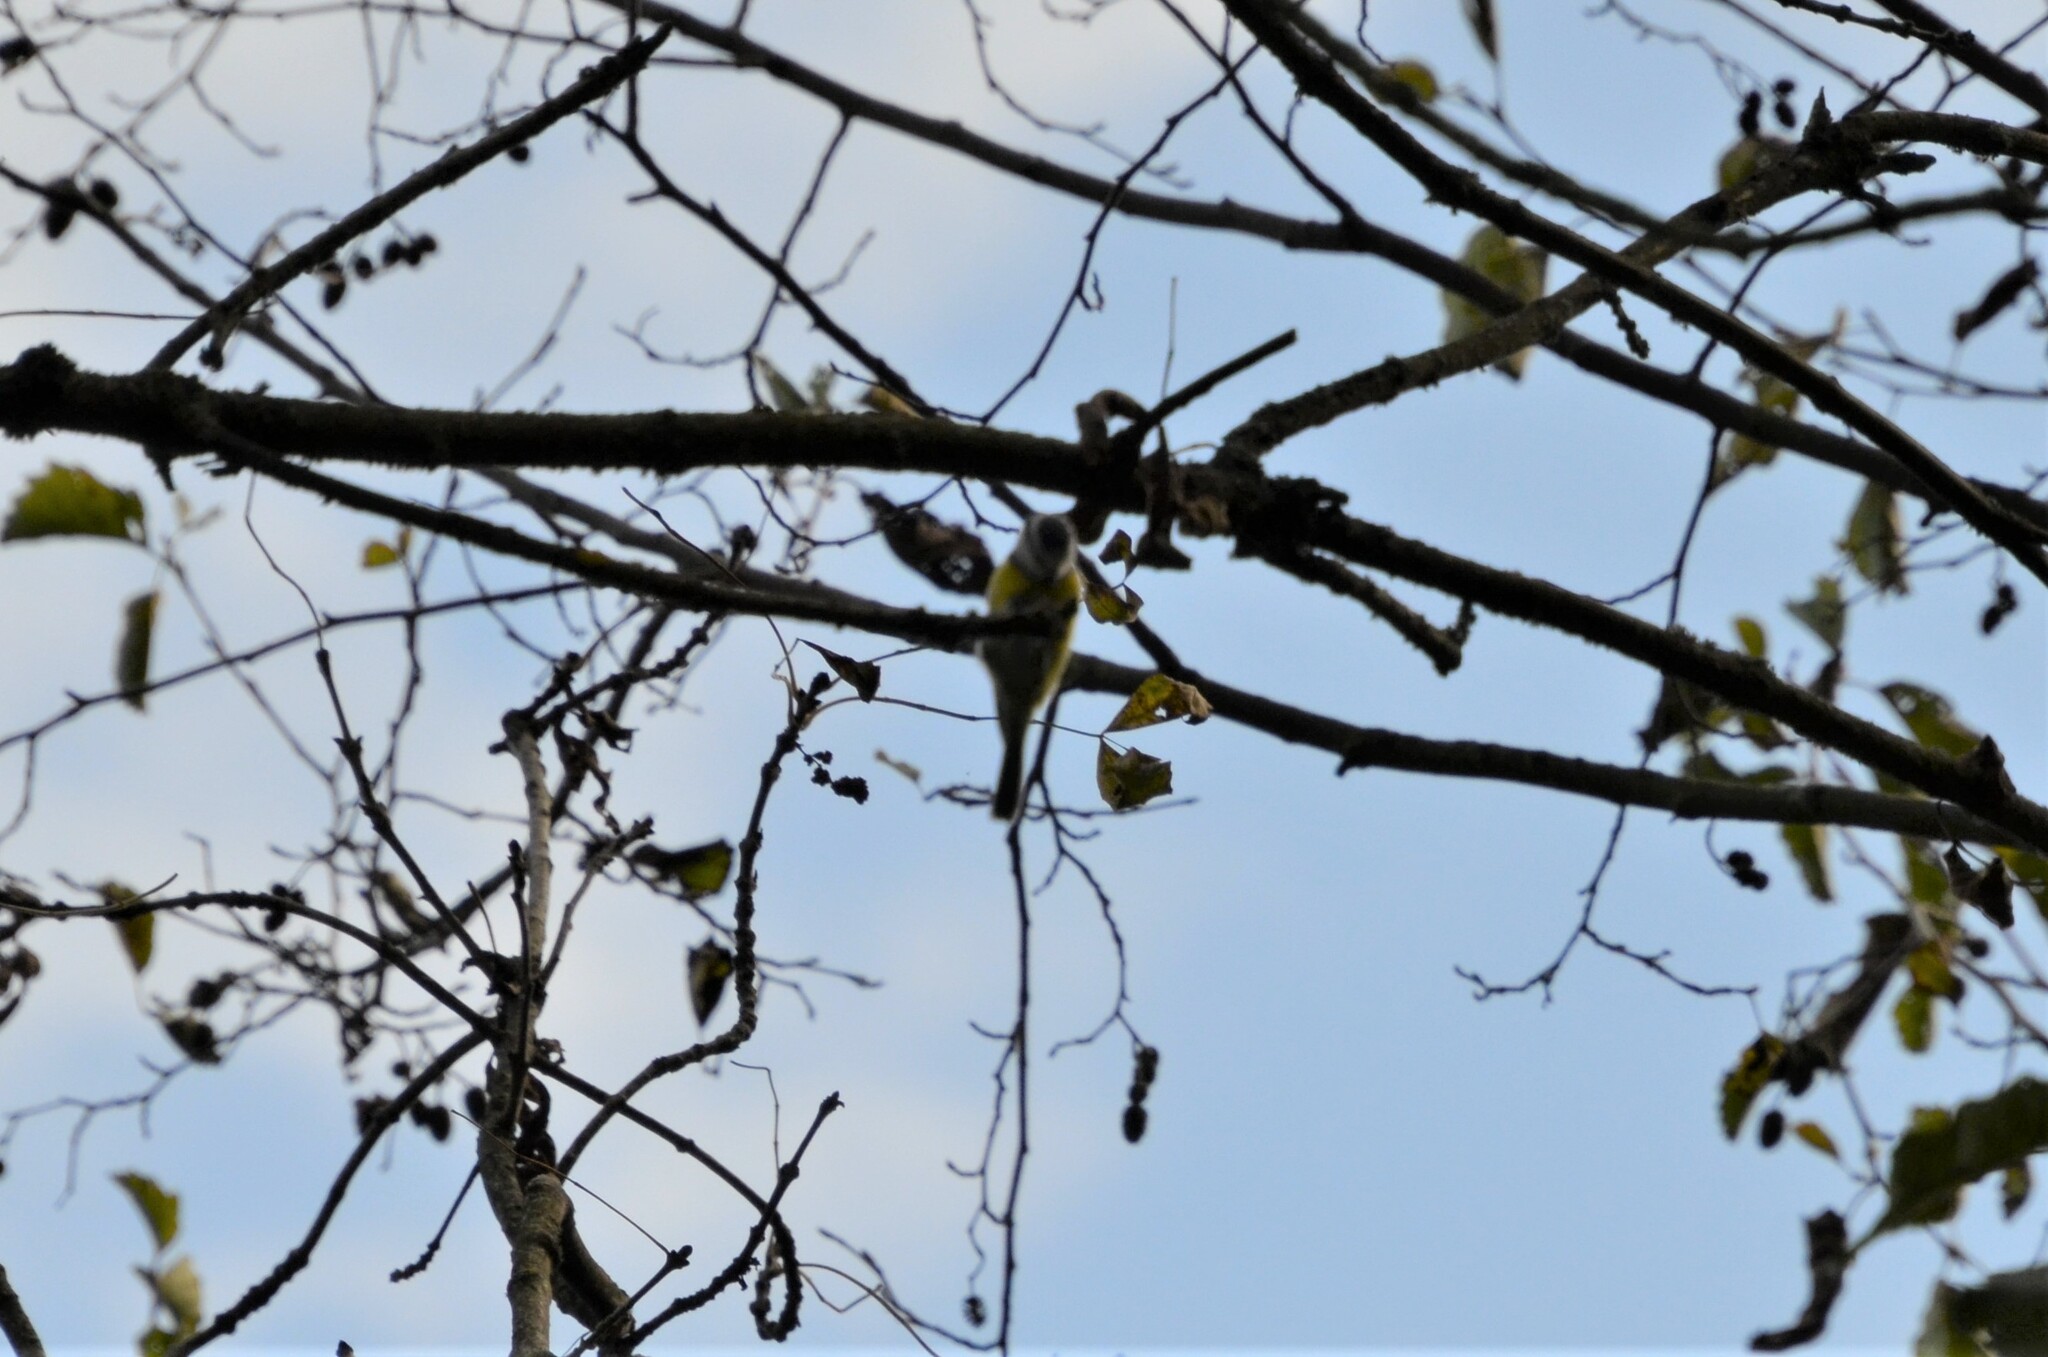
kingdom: Animalia
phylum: Chordata
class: Aves
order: Passeriformes
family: Paridae
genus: Cyanistes
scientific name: Cyanistes caeruleus
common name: Eurasian blue tit
